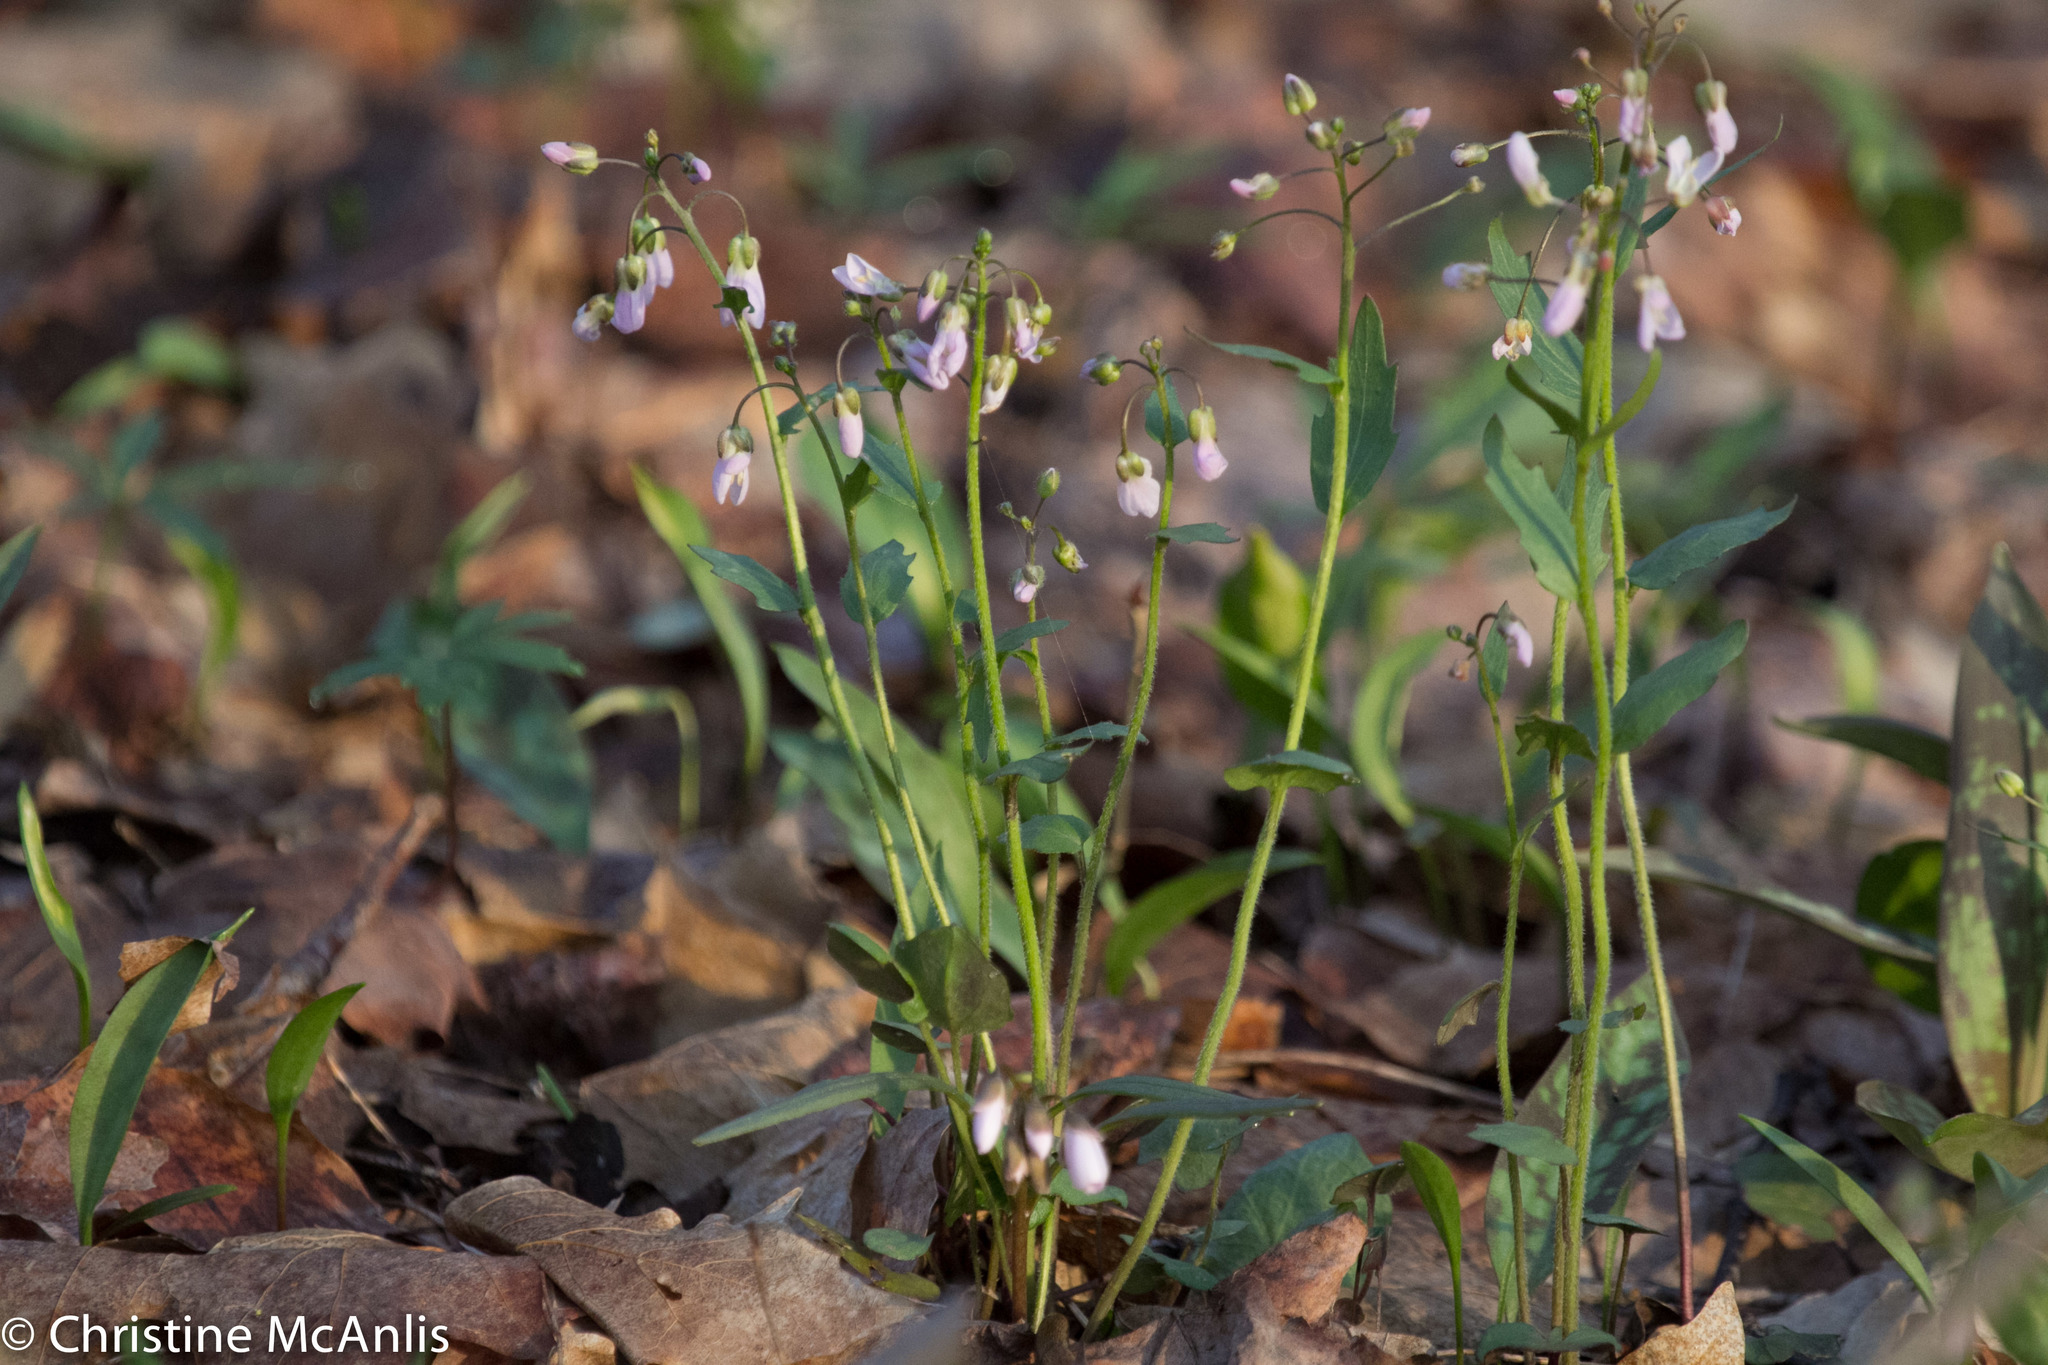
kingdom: Plantae
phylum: Tracheophyta
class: Magnoliopsida
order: Brassicales
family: Brassicaceae
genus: Cardamine
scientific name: Cardamine douglassii
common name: Purple cress
